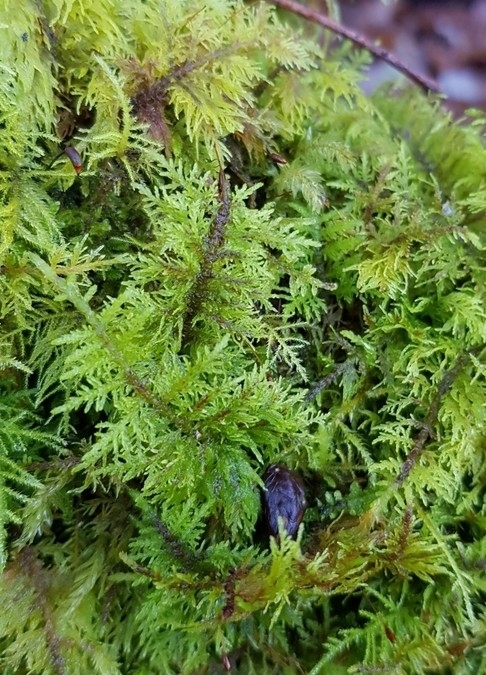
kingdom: Plantae
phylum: Bryophyta
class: Bryopsida
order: Hypnales
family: Thuidiaceae
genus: Thuidium
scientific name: Thuidium tamariscinum
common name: Common tamarisk-moss
